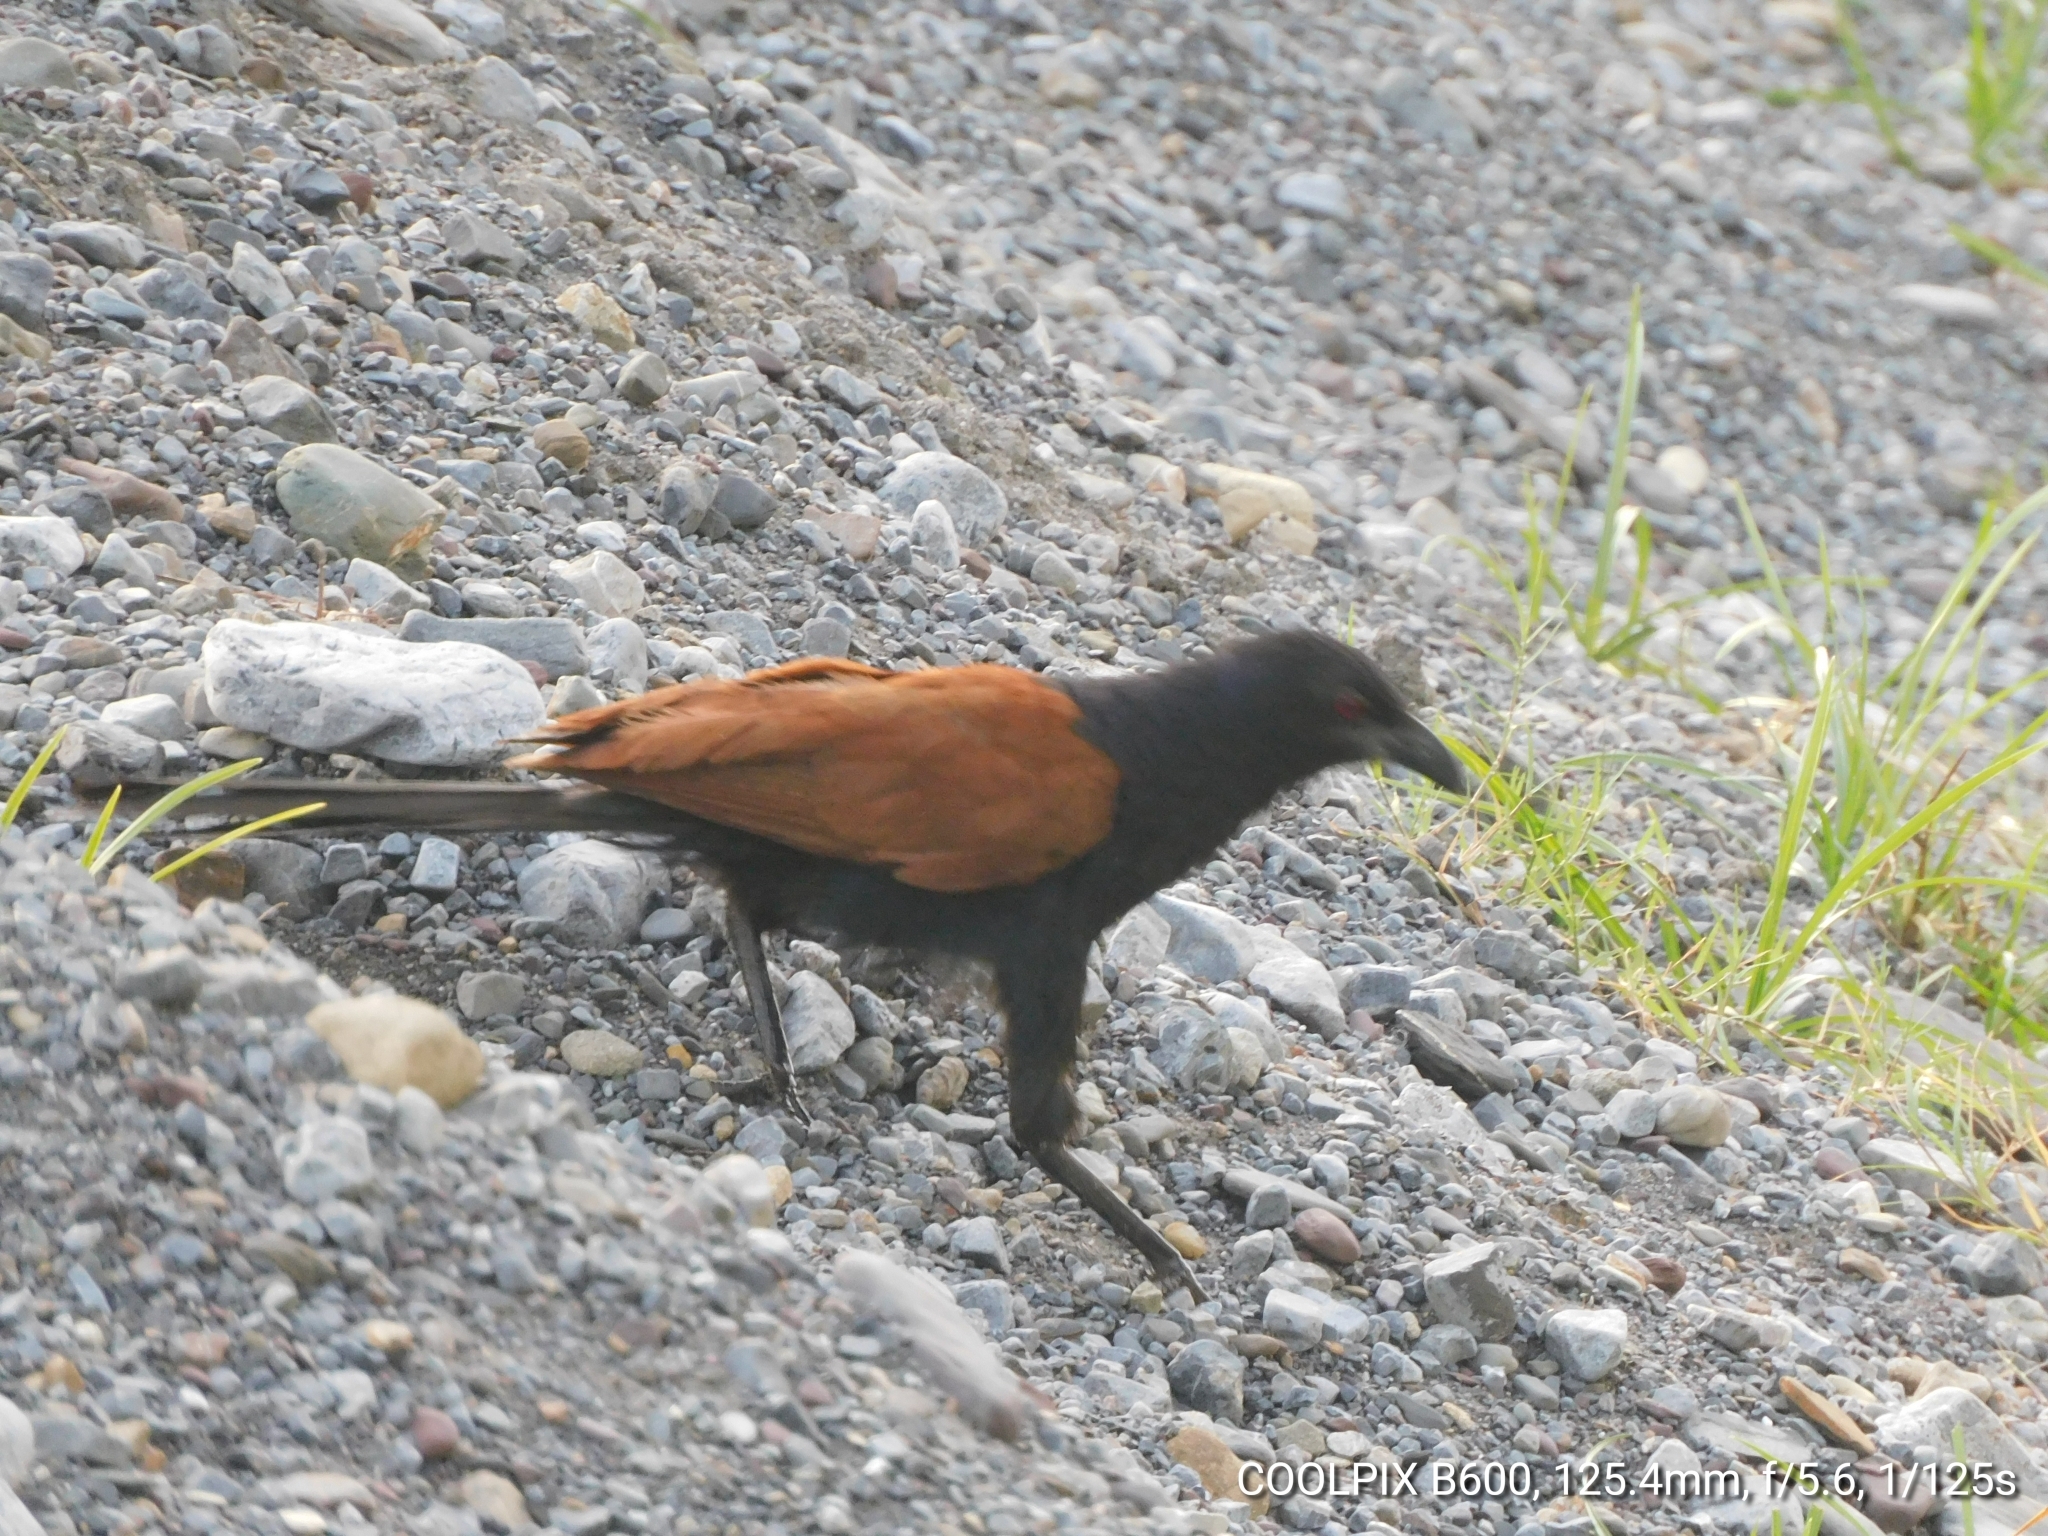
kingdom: Animalia
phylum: Chordata
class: Aves
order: Cuculiformes
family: Cuculidae
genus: Centropus
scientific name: Centropus sinensis
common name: Greater coucal
